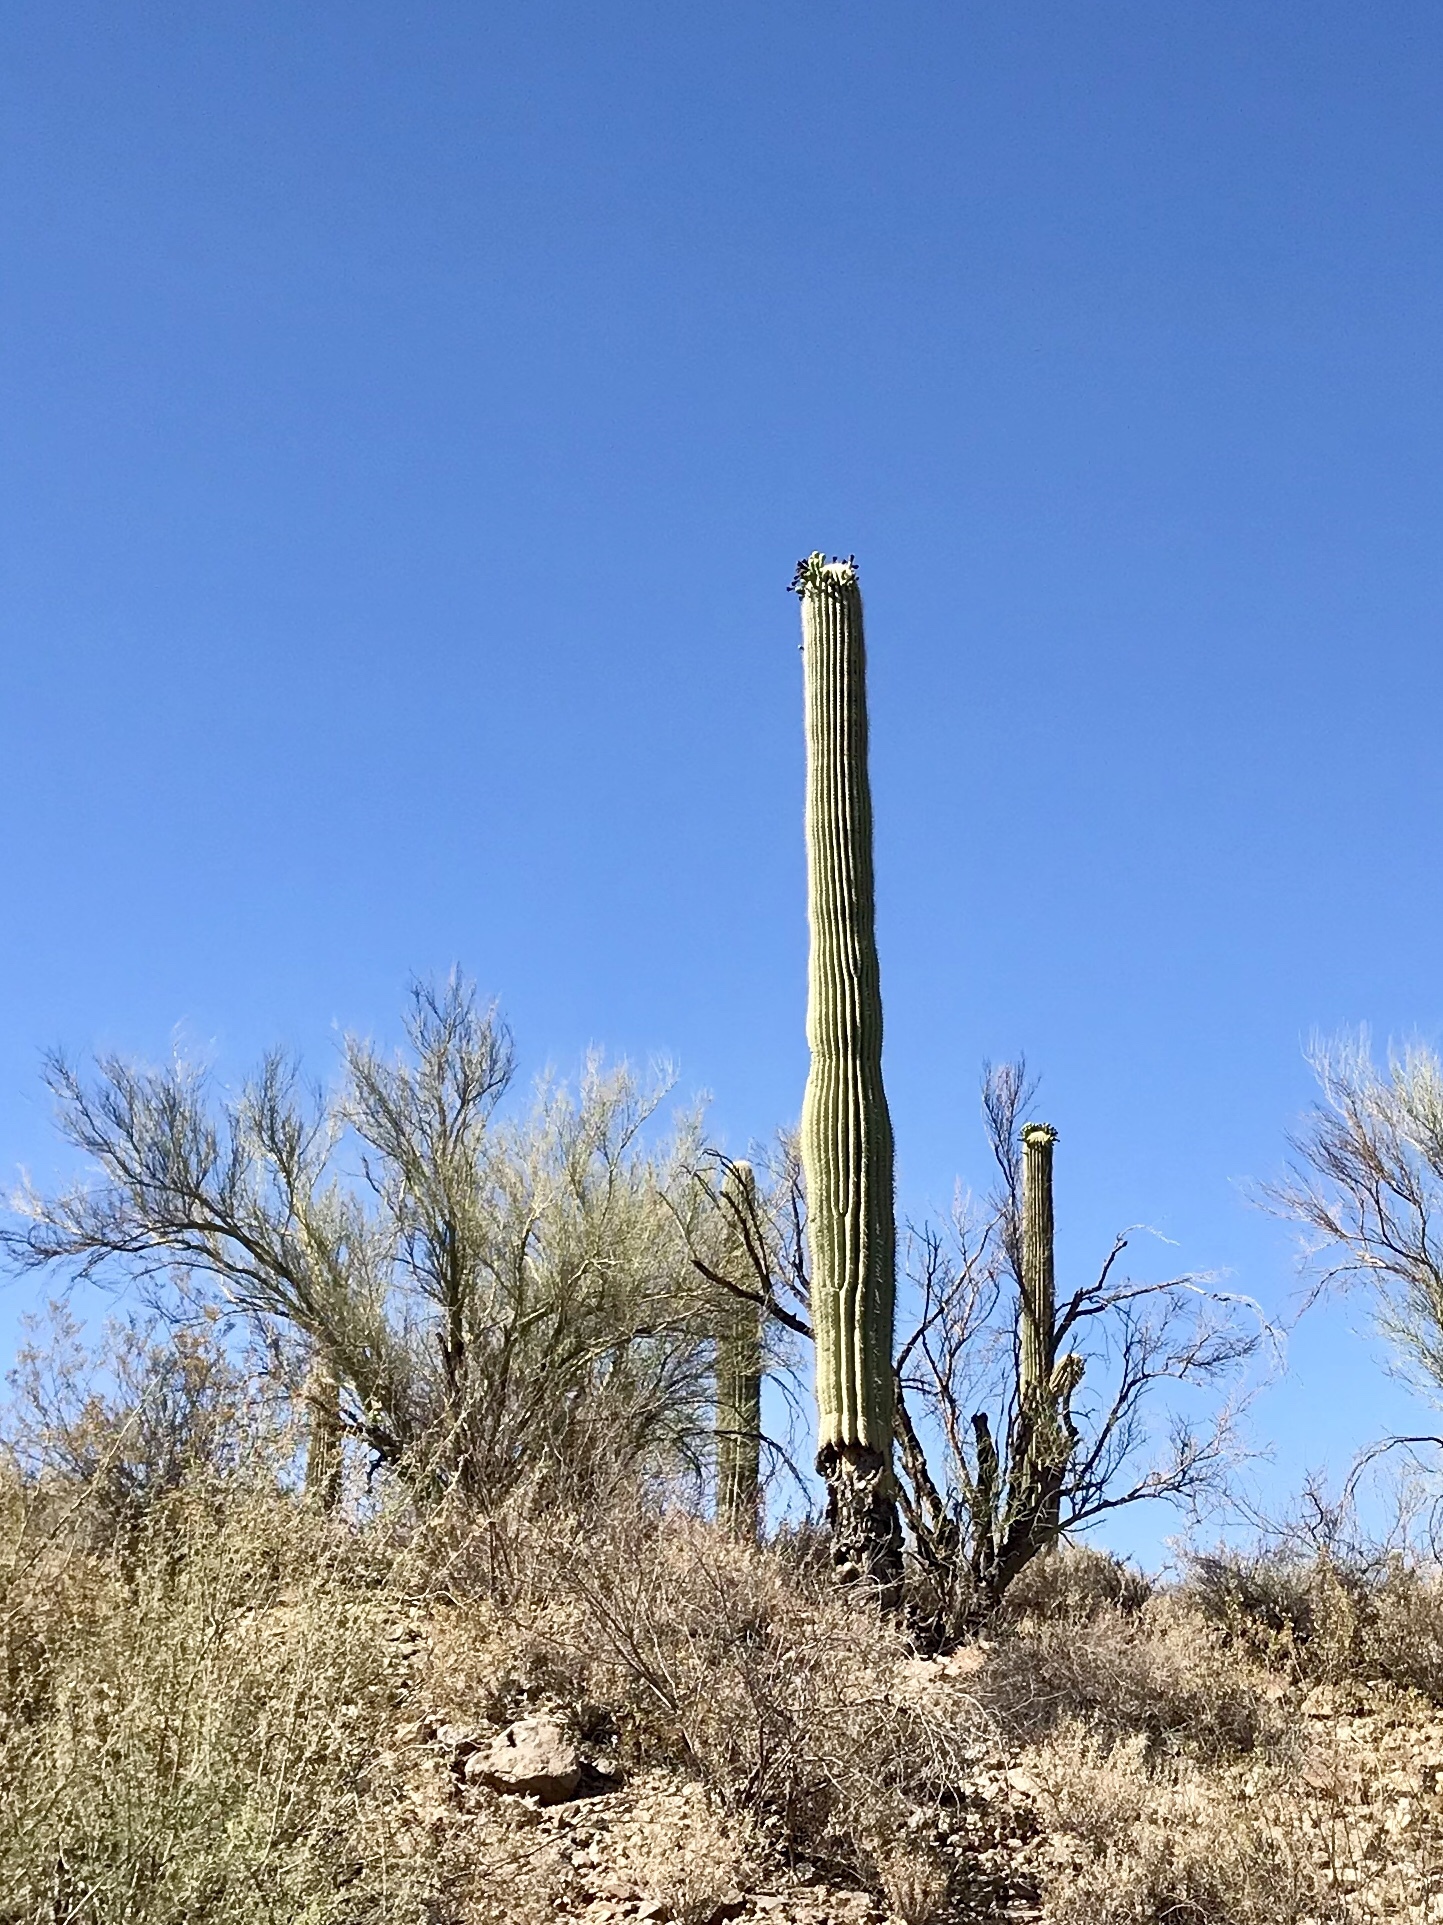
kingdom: Plantae
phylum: Tracheophyta
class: Magnoliopsida
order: Caryophyllales
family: Cactaceae
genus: Carnegiea
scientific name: Carnegiea gigantea
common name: Saguaro
